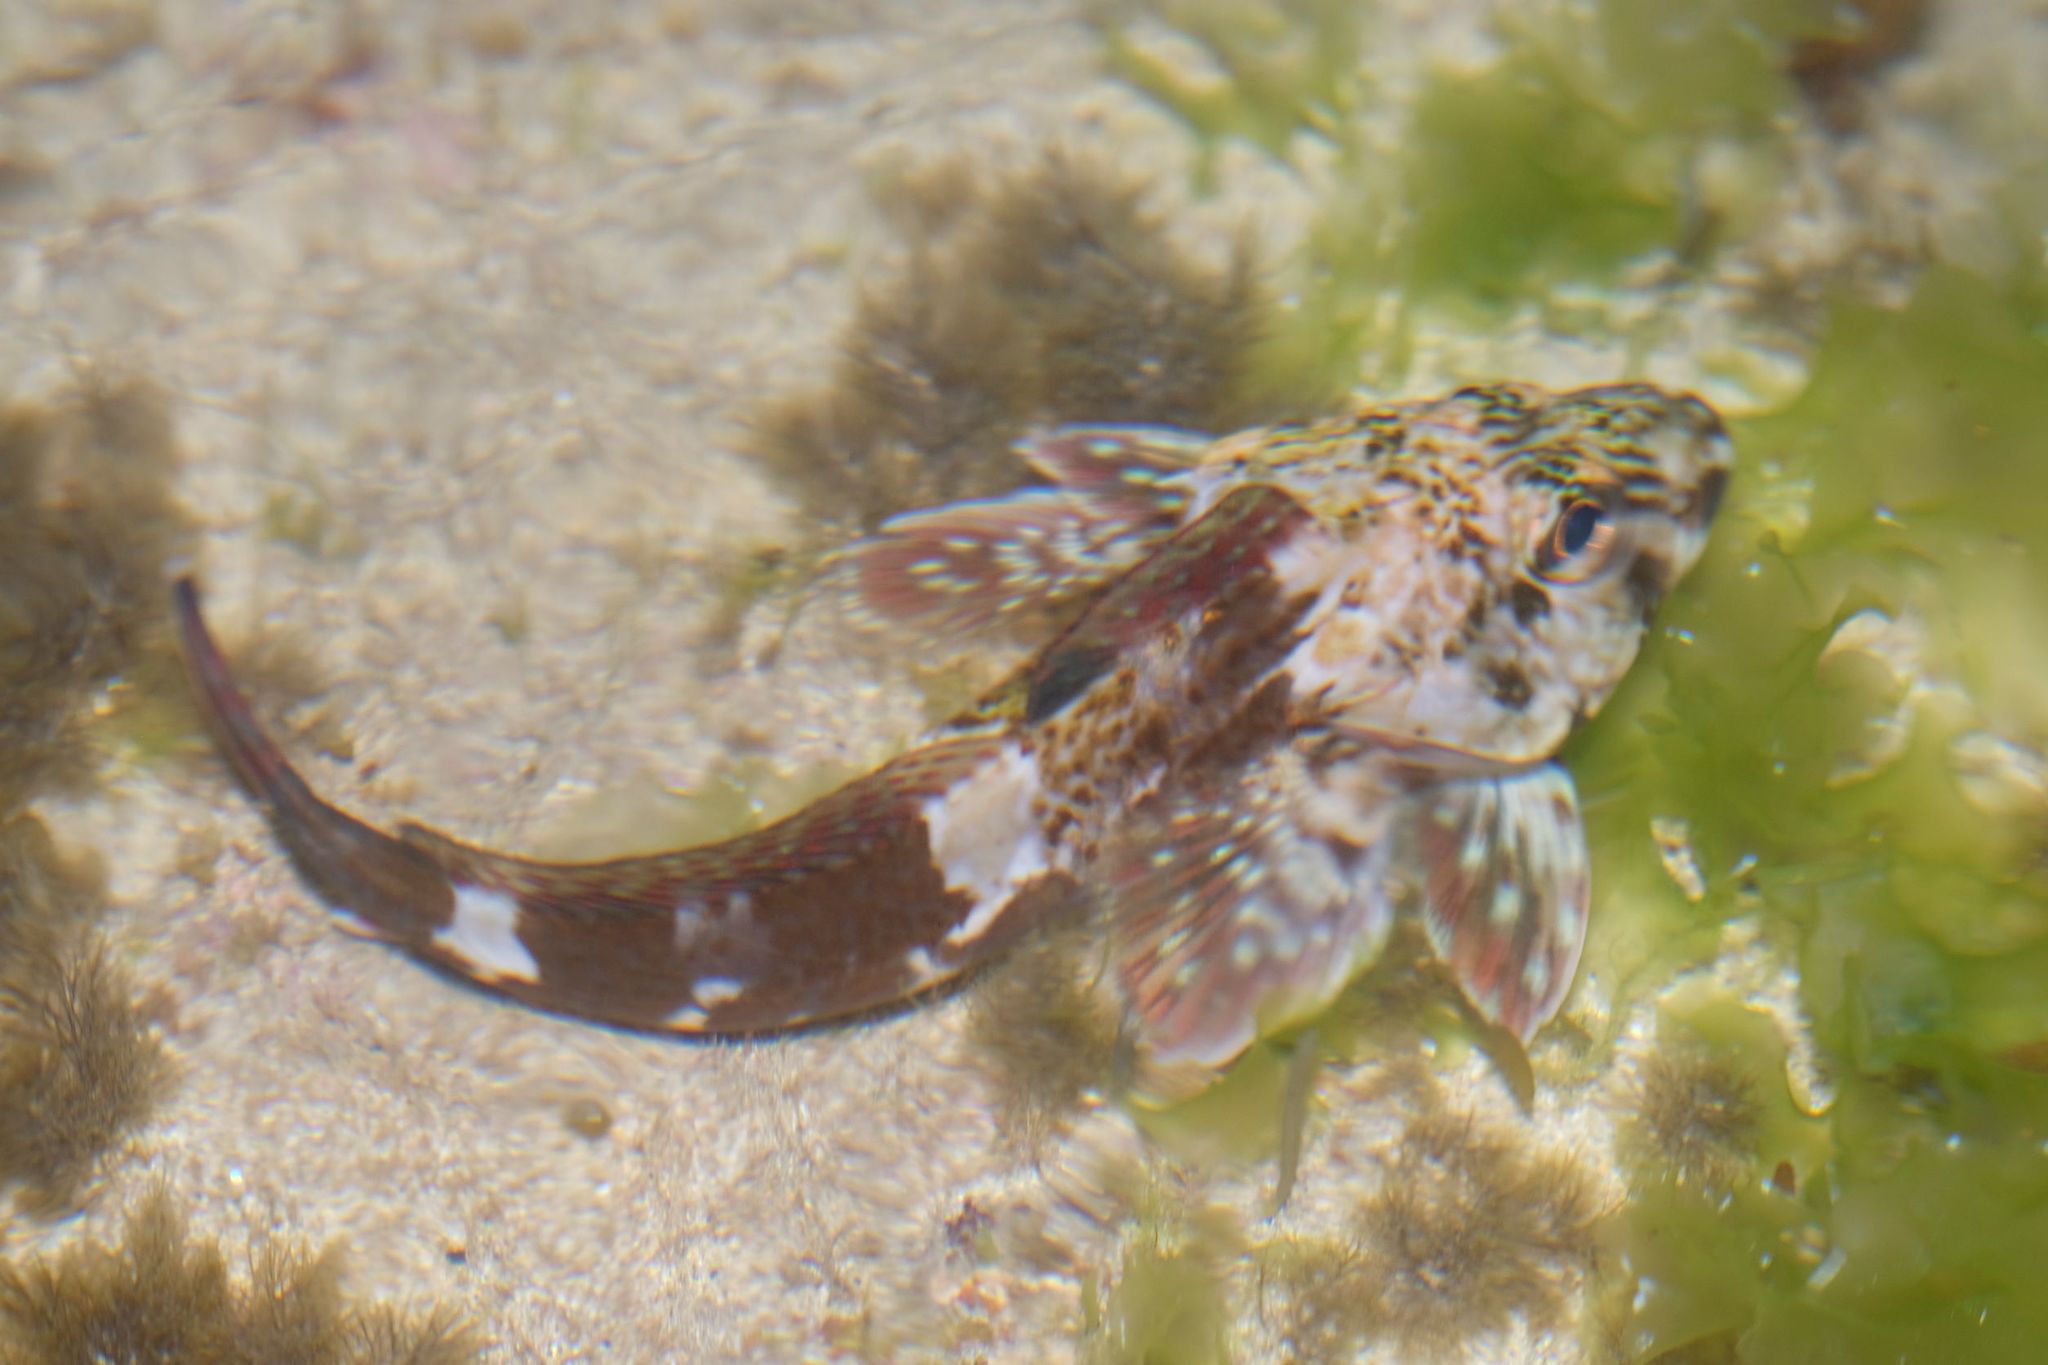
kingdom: Animalia
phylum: Chordata
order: Perciformes
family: Bovichtidae
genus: Bovichtus
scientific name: Bovichtus angustifrons
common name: Dragonet
